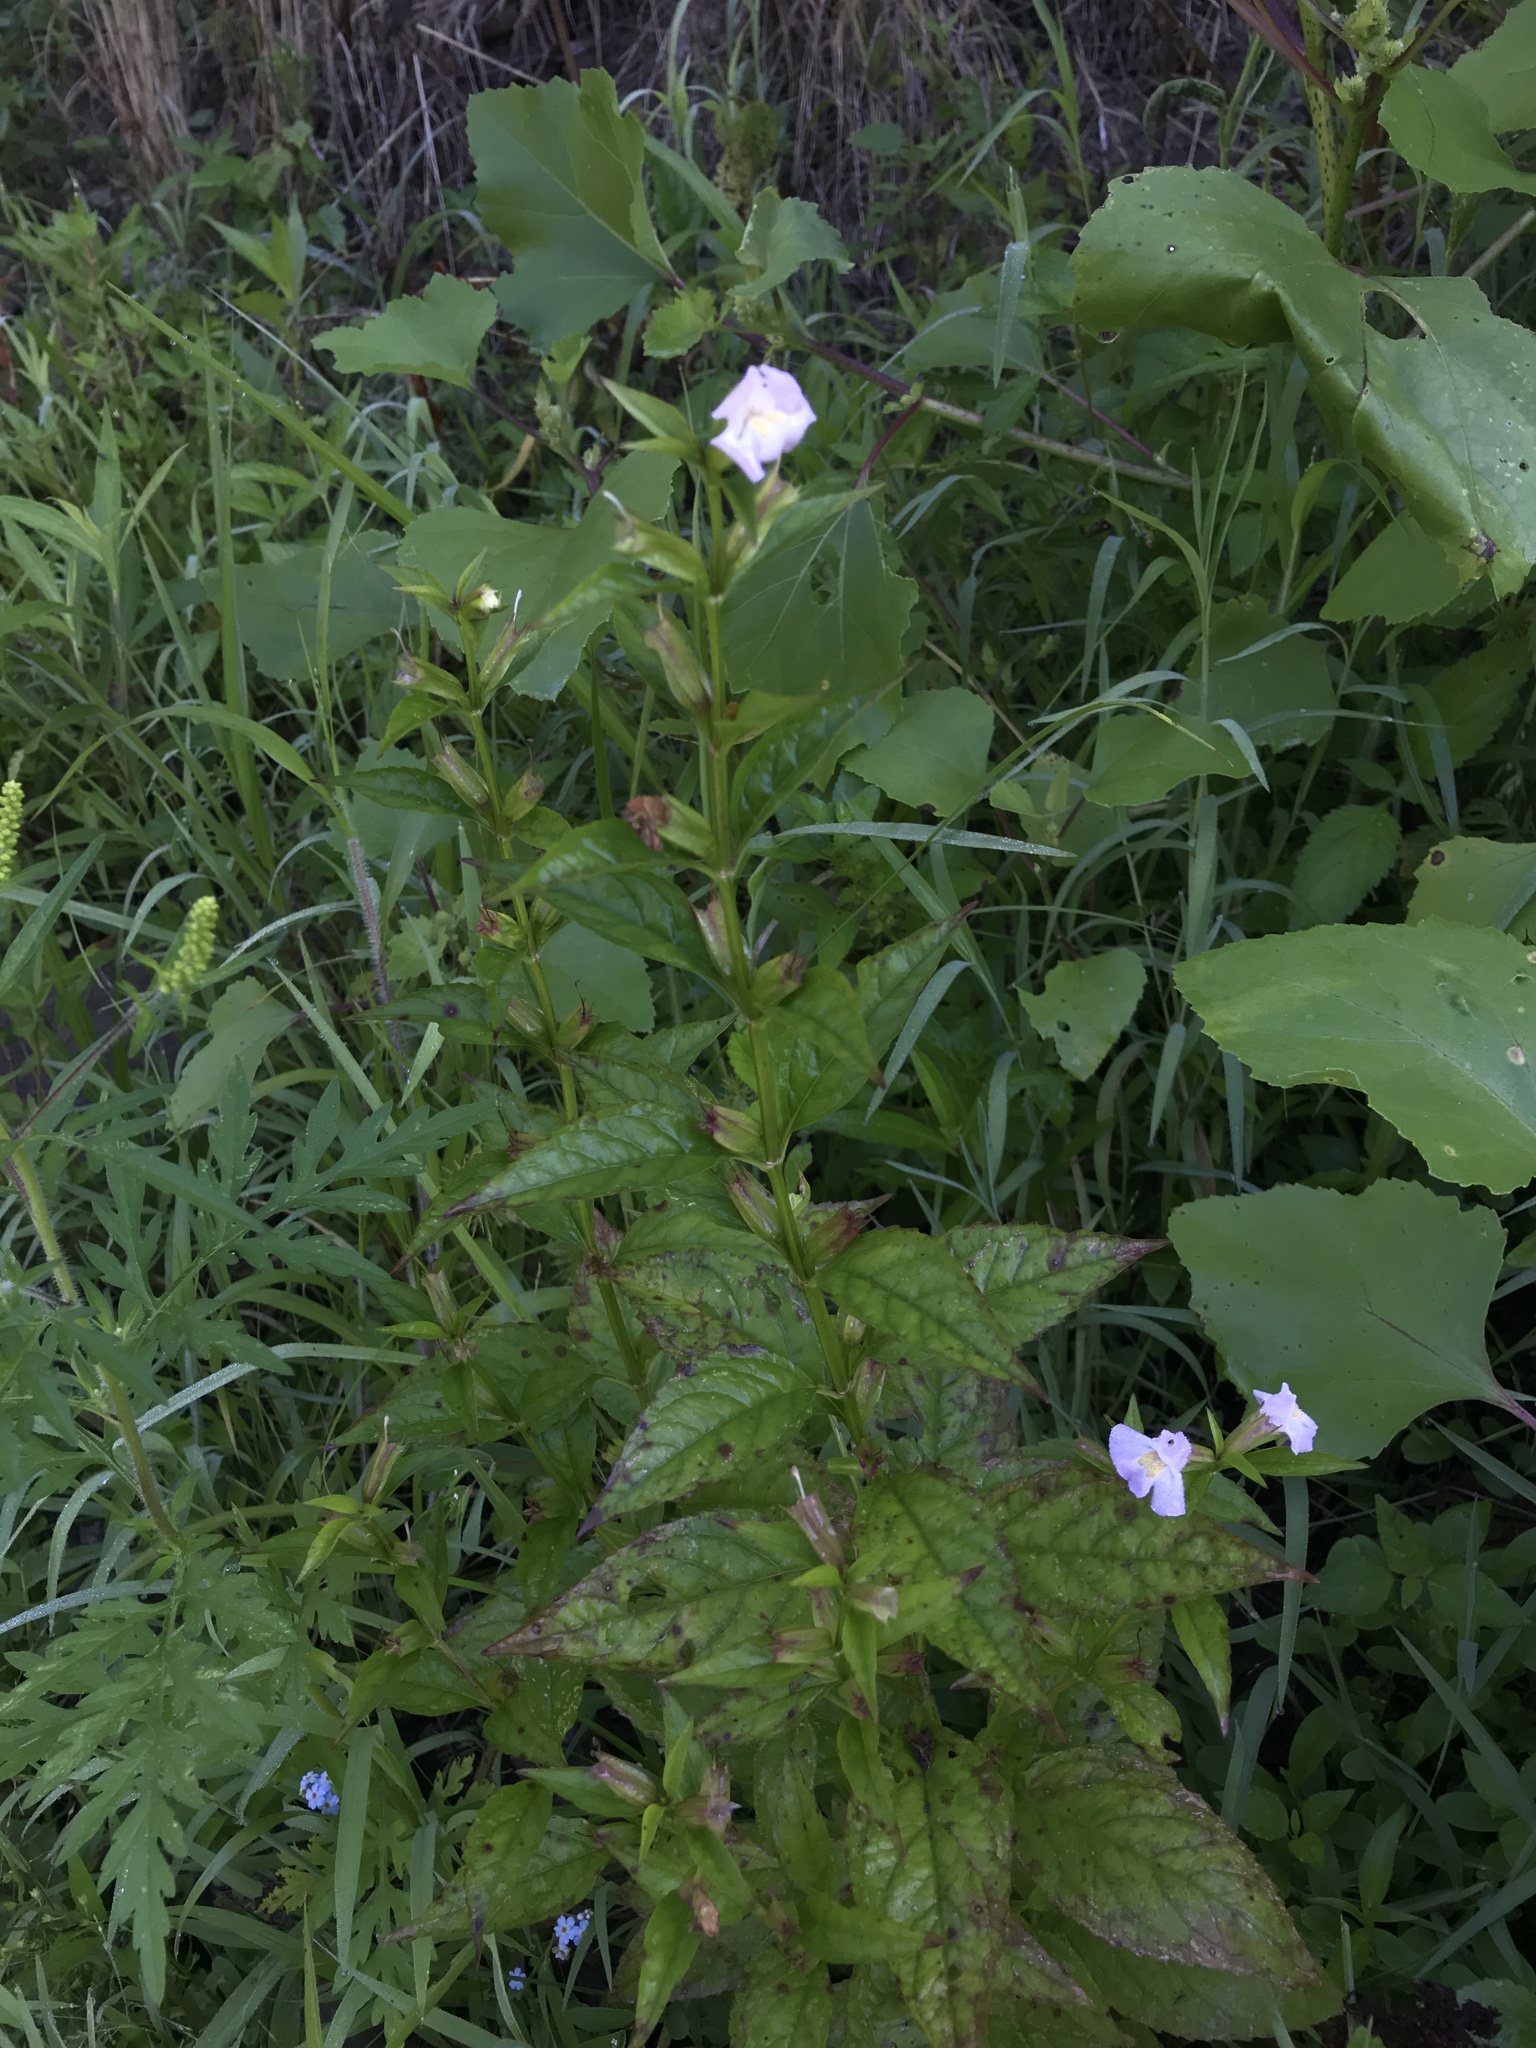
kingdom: Plantae
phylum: Tracheophyta
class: Magnoliopsida
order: Lamiales
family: Phrymaceae
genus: Mimulus
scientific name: Mimulus alatus
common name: Sharp-wing monkey-flower
